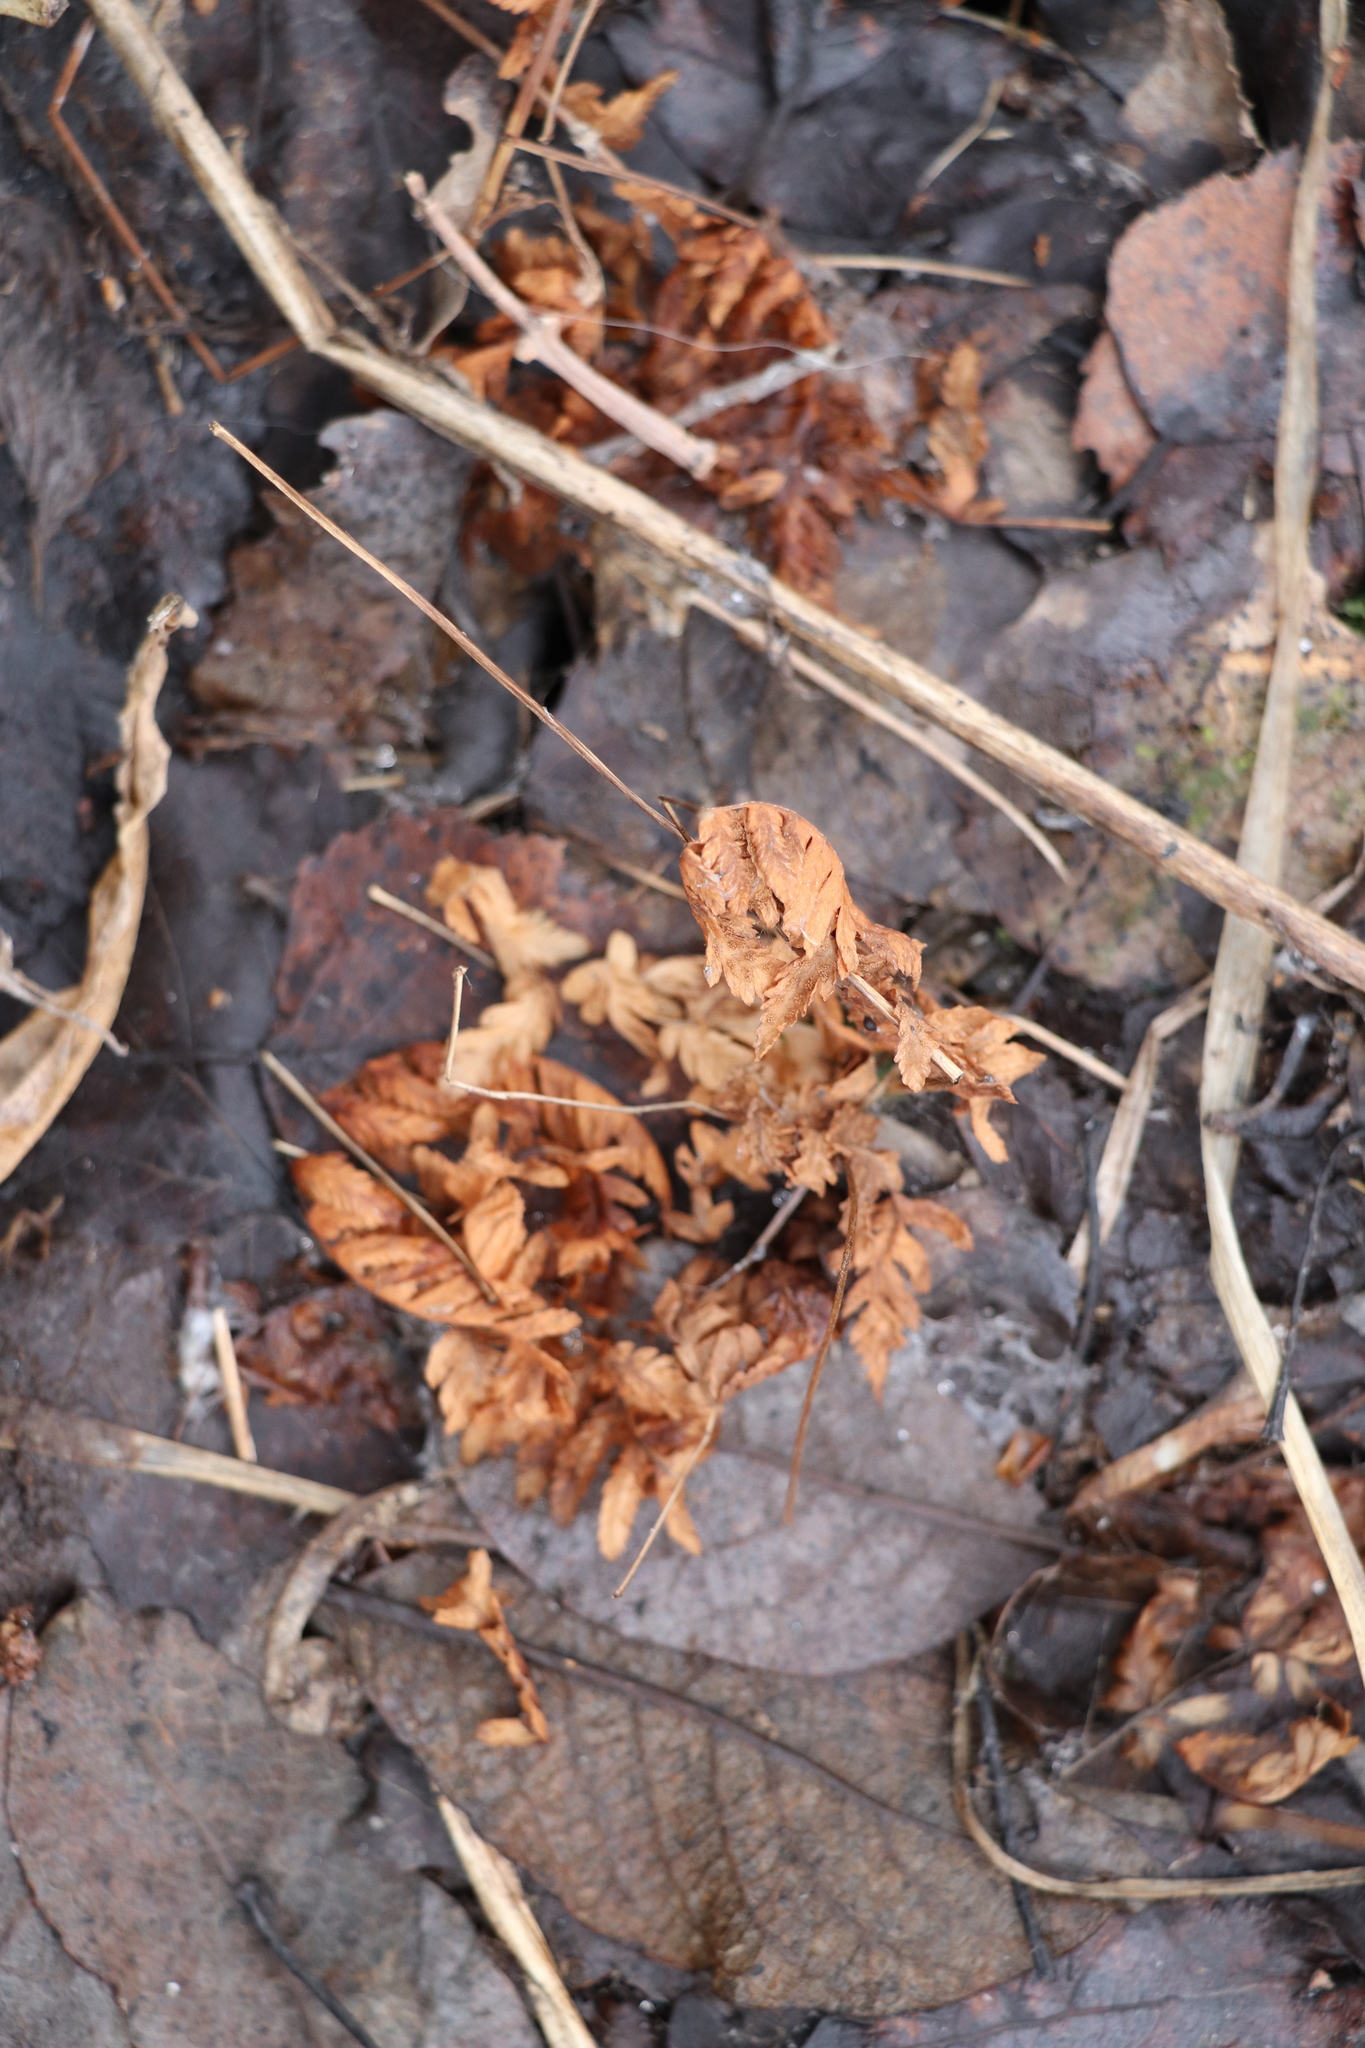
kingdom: Plantae
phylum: Tracheophyta
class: Polypodiopsida
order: Polypodiales
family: Cystopteridaceae
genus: Gymnocarpium
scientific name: Gymnocarpium dryopteris
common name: Oak fern
